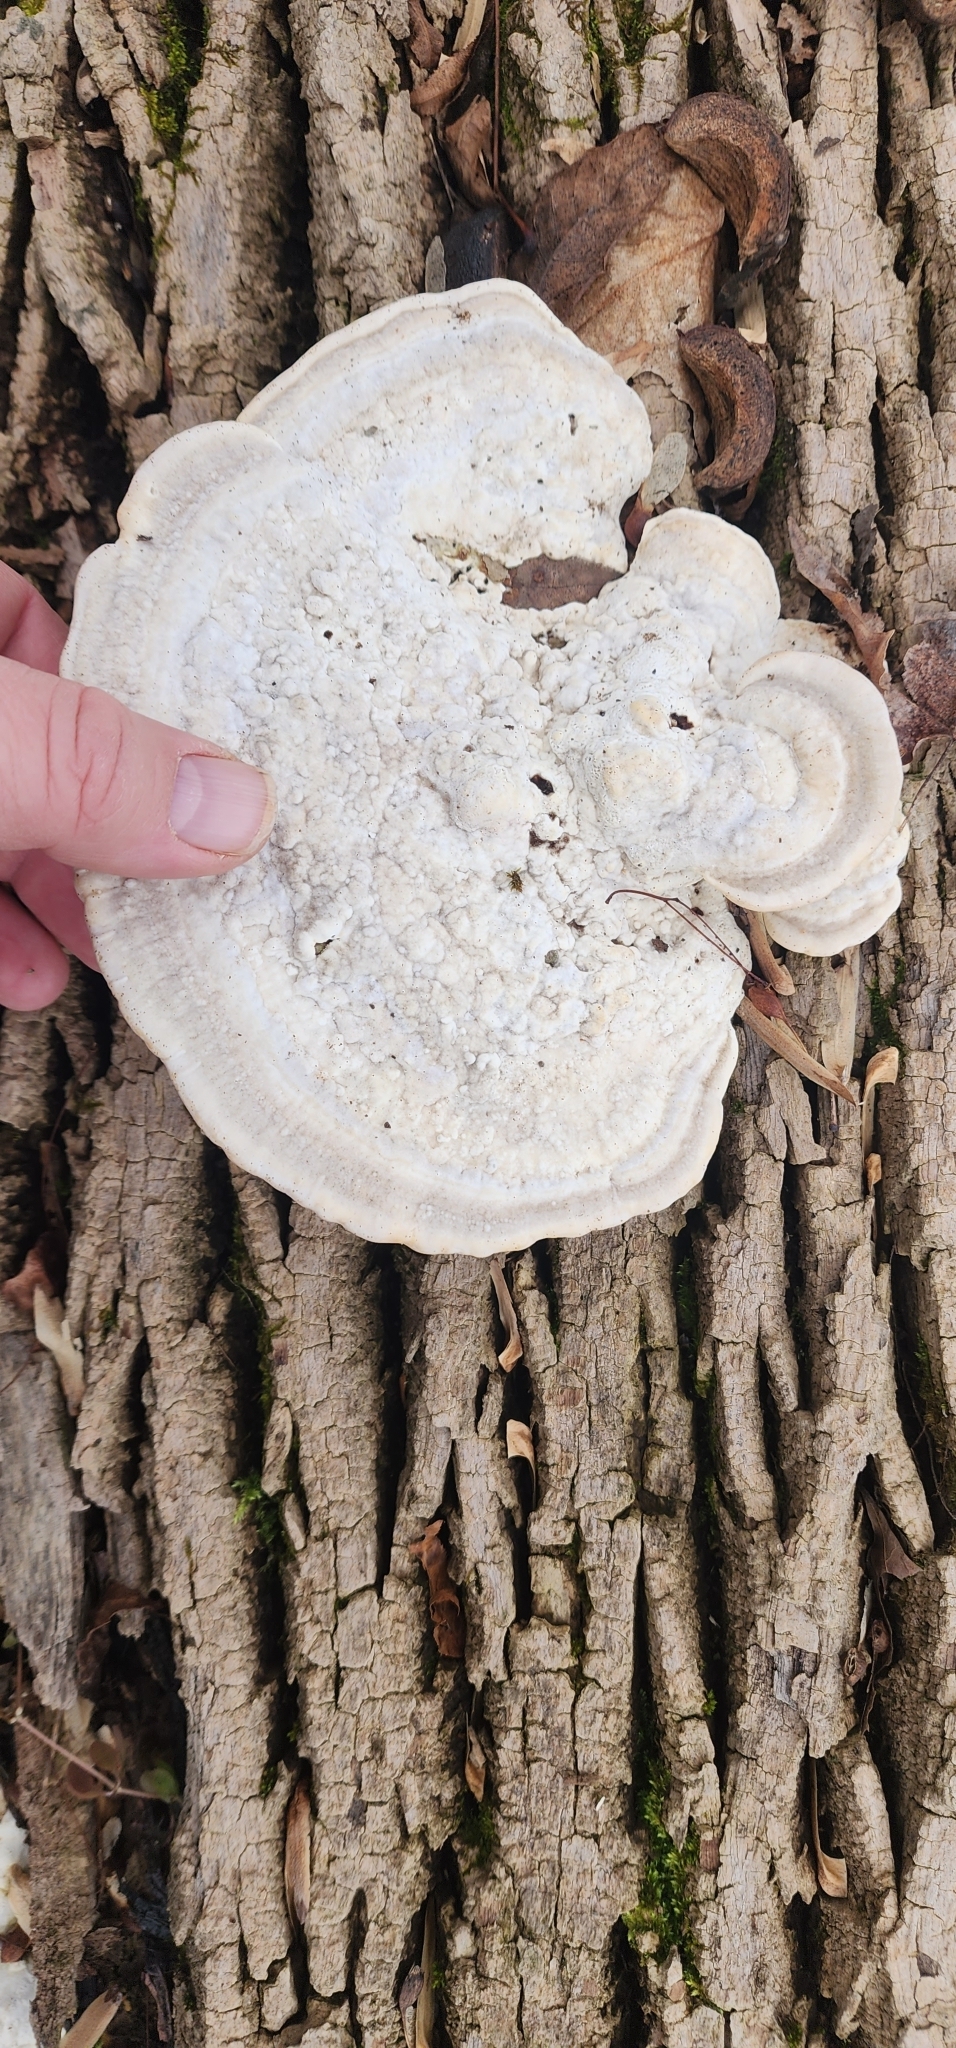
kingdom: Fungi
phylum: Basidiomycota
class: Agaricomycetes
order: Polyporales
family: Polyporaceae
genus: Trametes
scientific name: Trametes gibbosa
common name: Lumpy bracket
